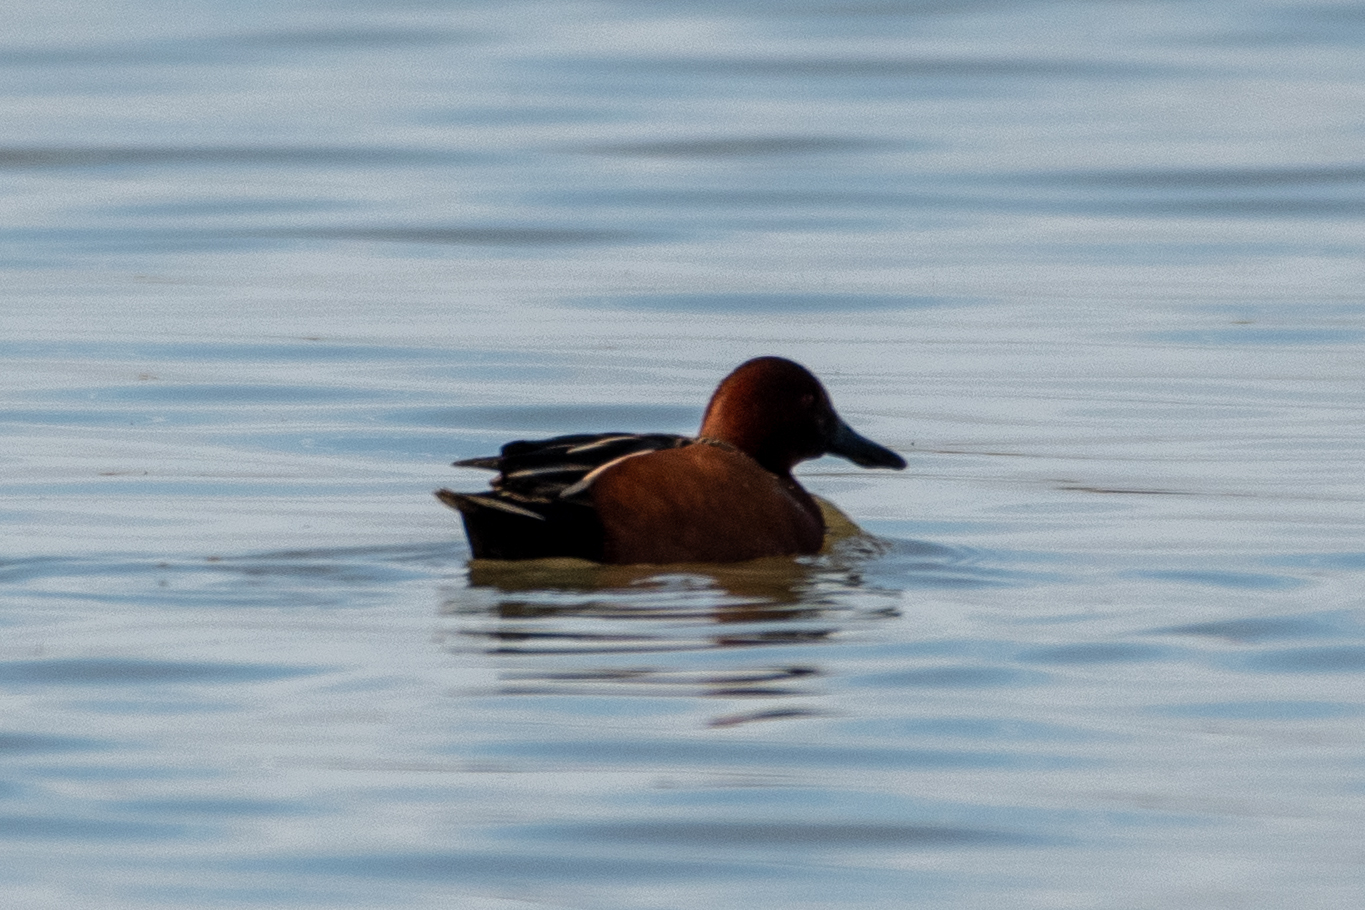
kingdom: Animalia
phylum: Chordata
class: Aves
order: Anseriformes
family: Anatidae
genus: Spatula
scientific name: Spatula cyanoptera
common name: Cinnamon teal
